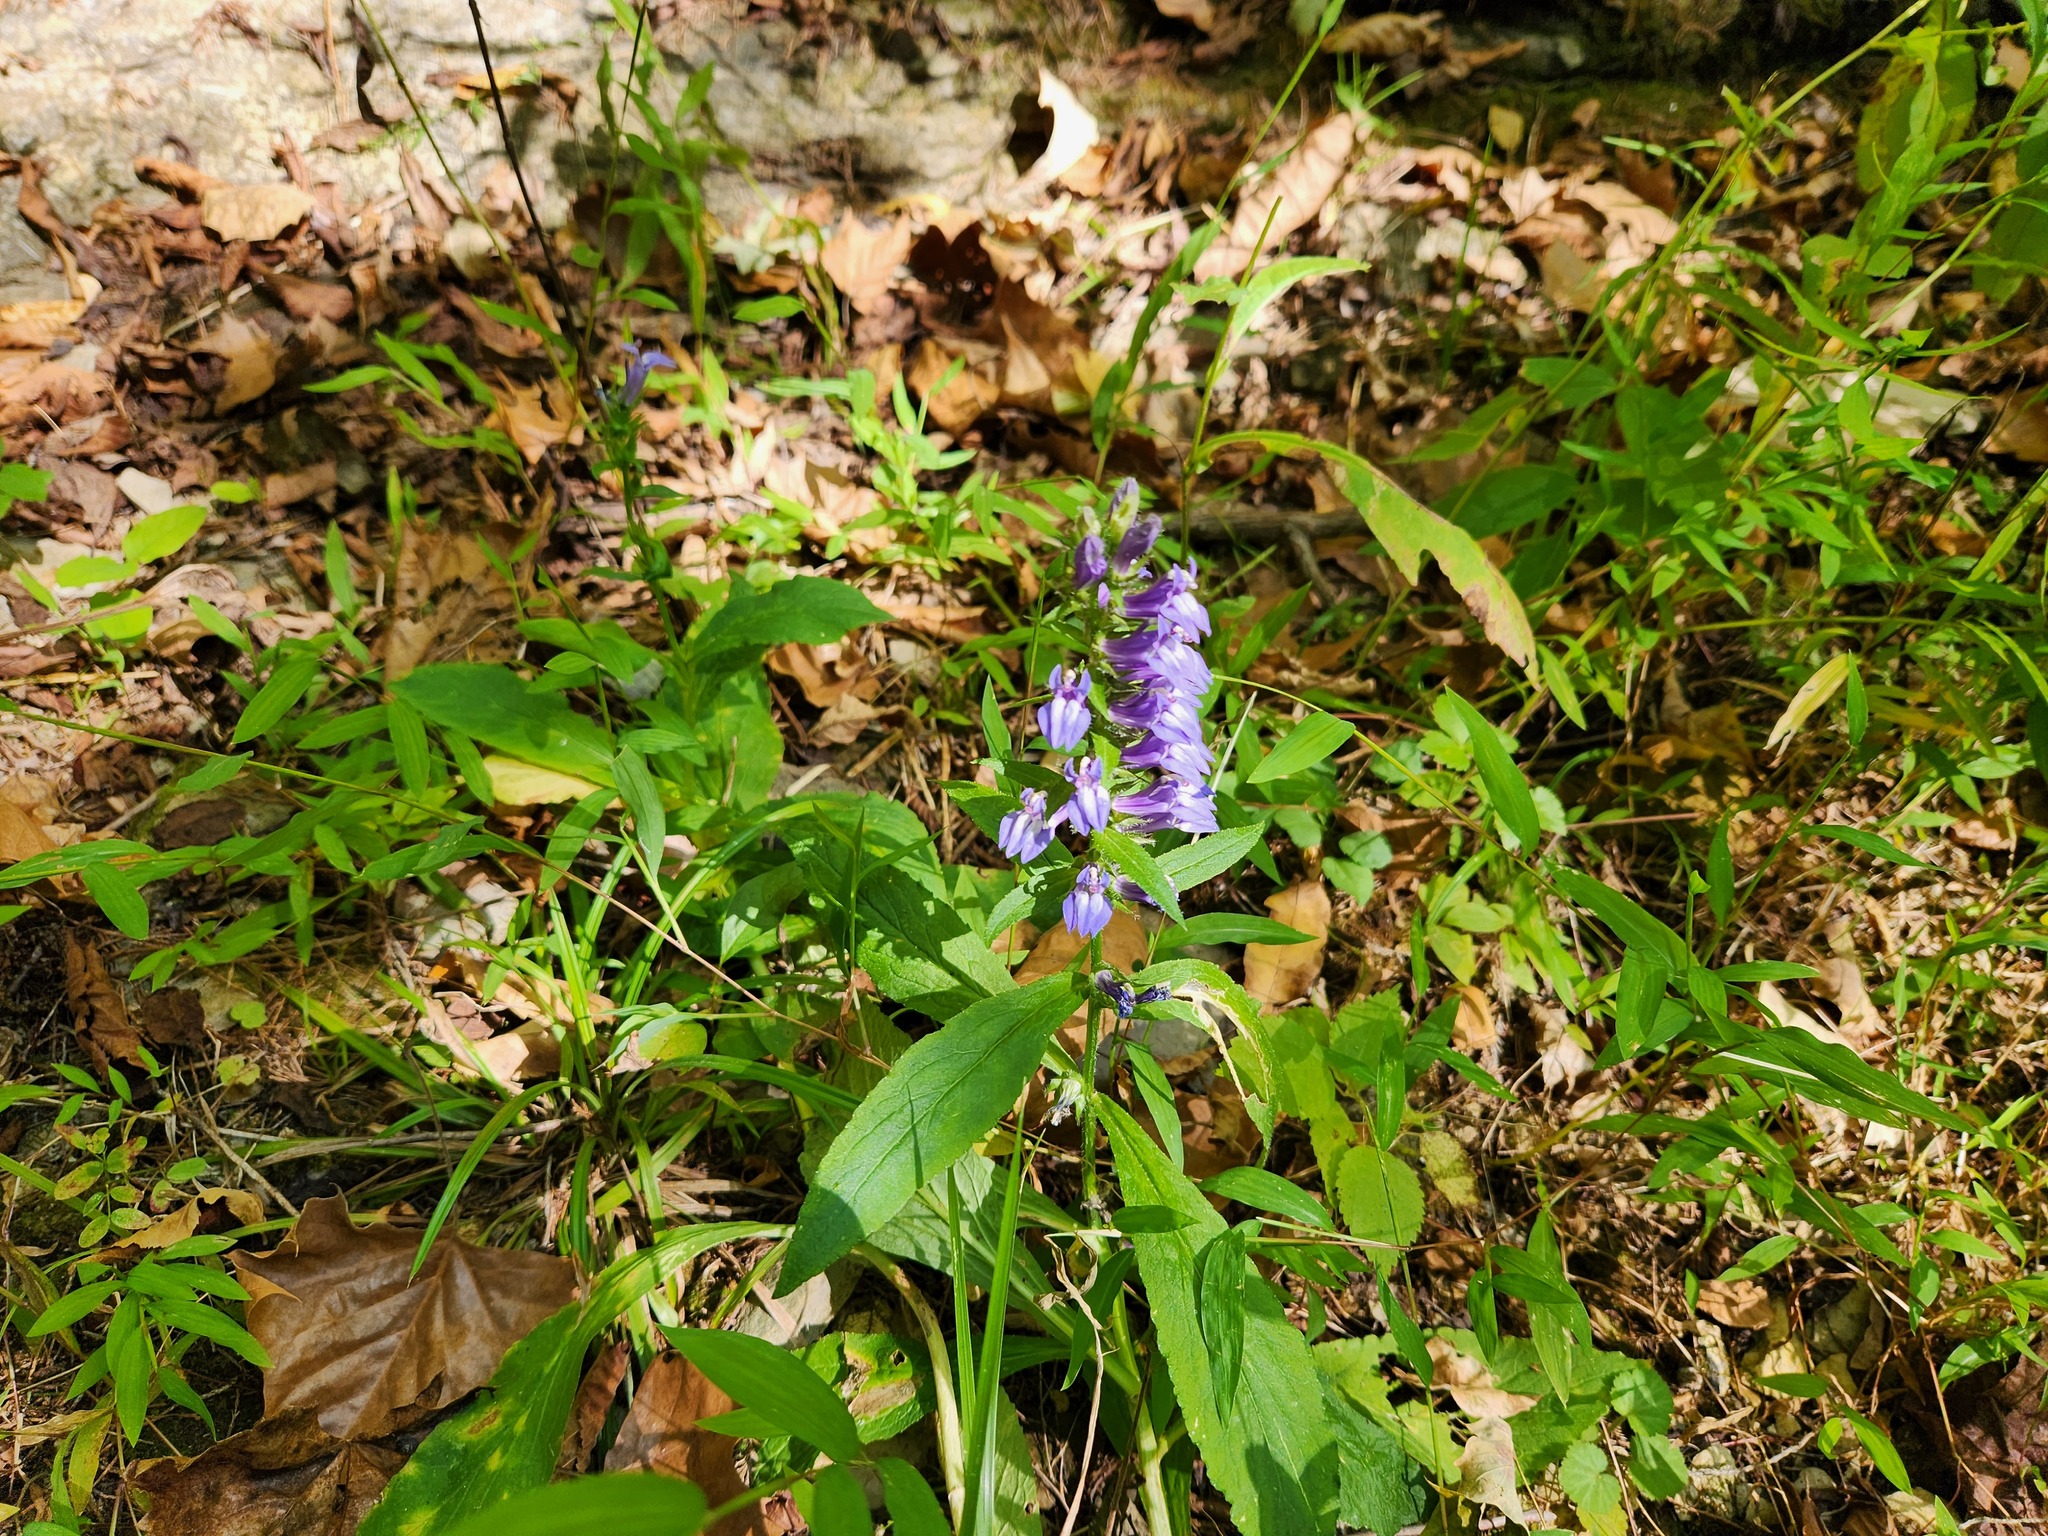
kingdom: Plantae
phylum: Tracheophyta
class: Magnoliopsida
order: Asterales
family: Campanulaceae
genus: Lobelia
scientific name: Lobelia siphilitica
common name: Great lobelia
